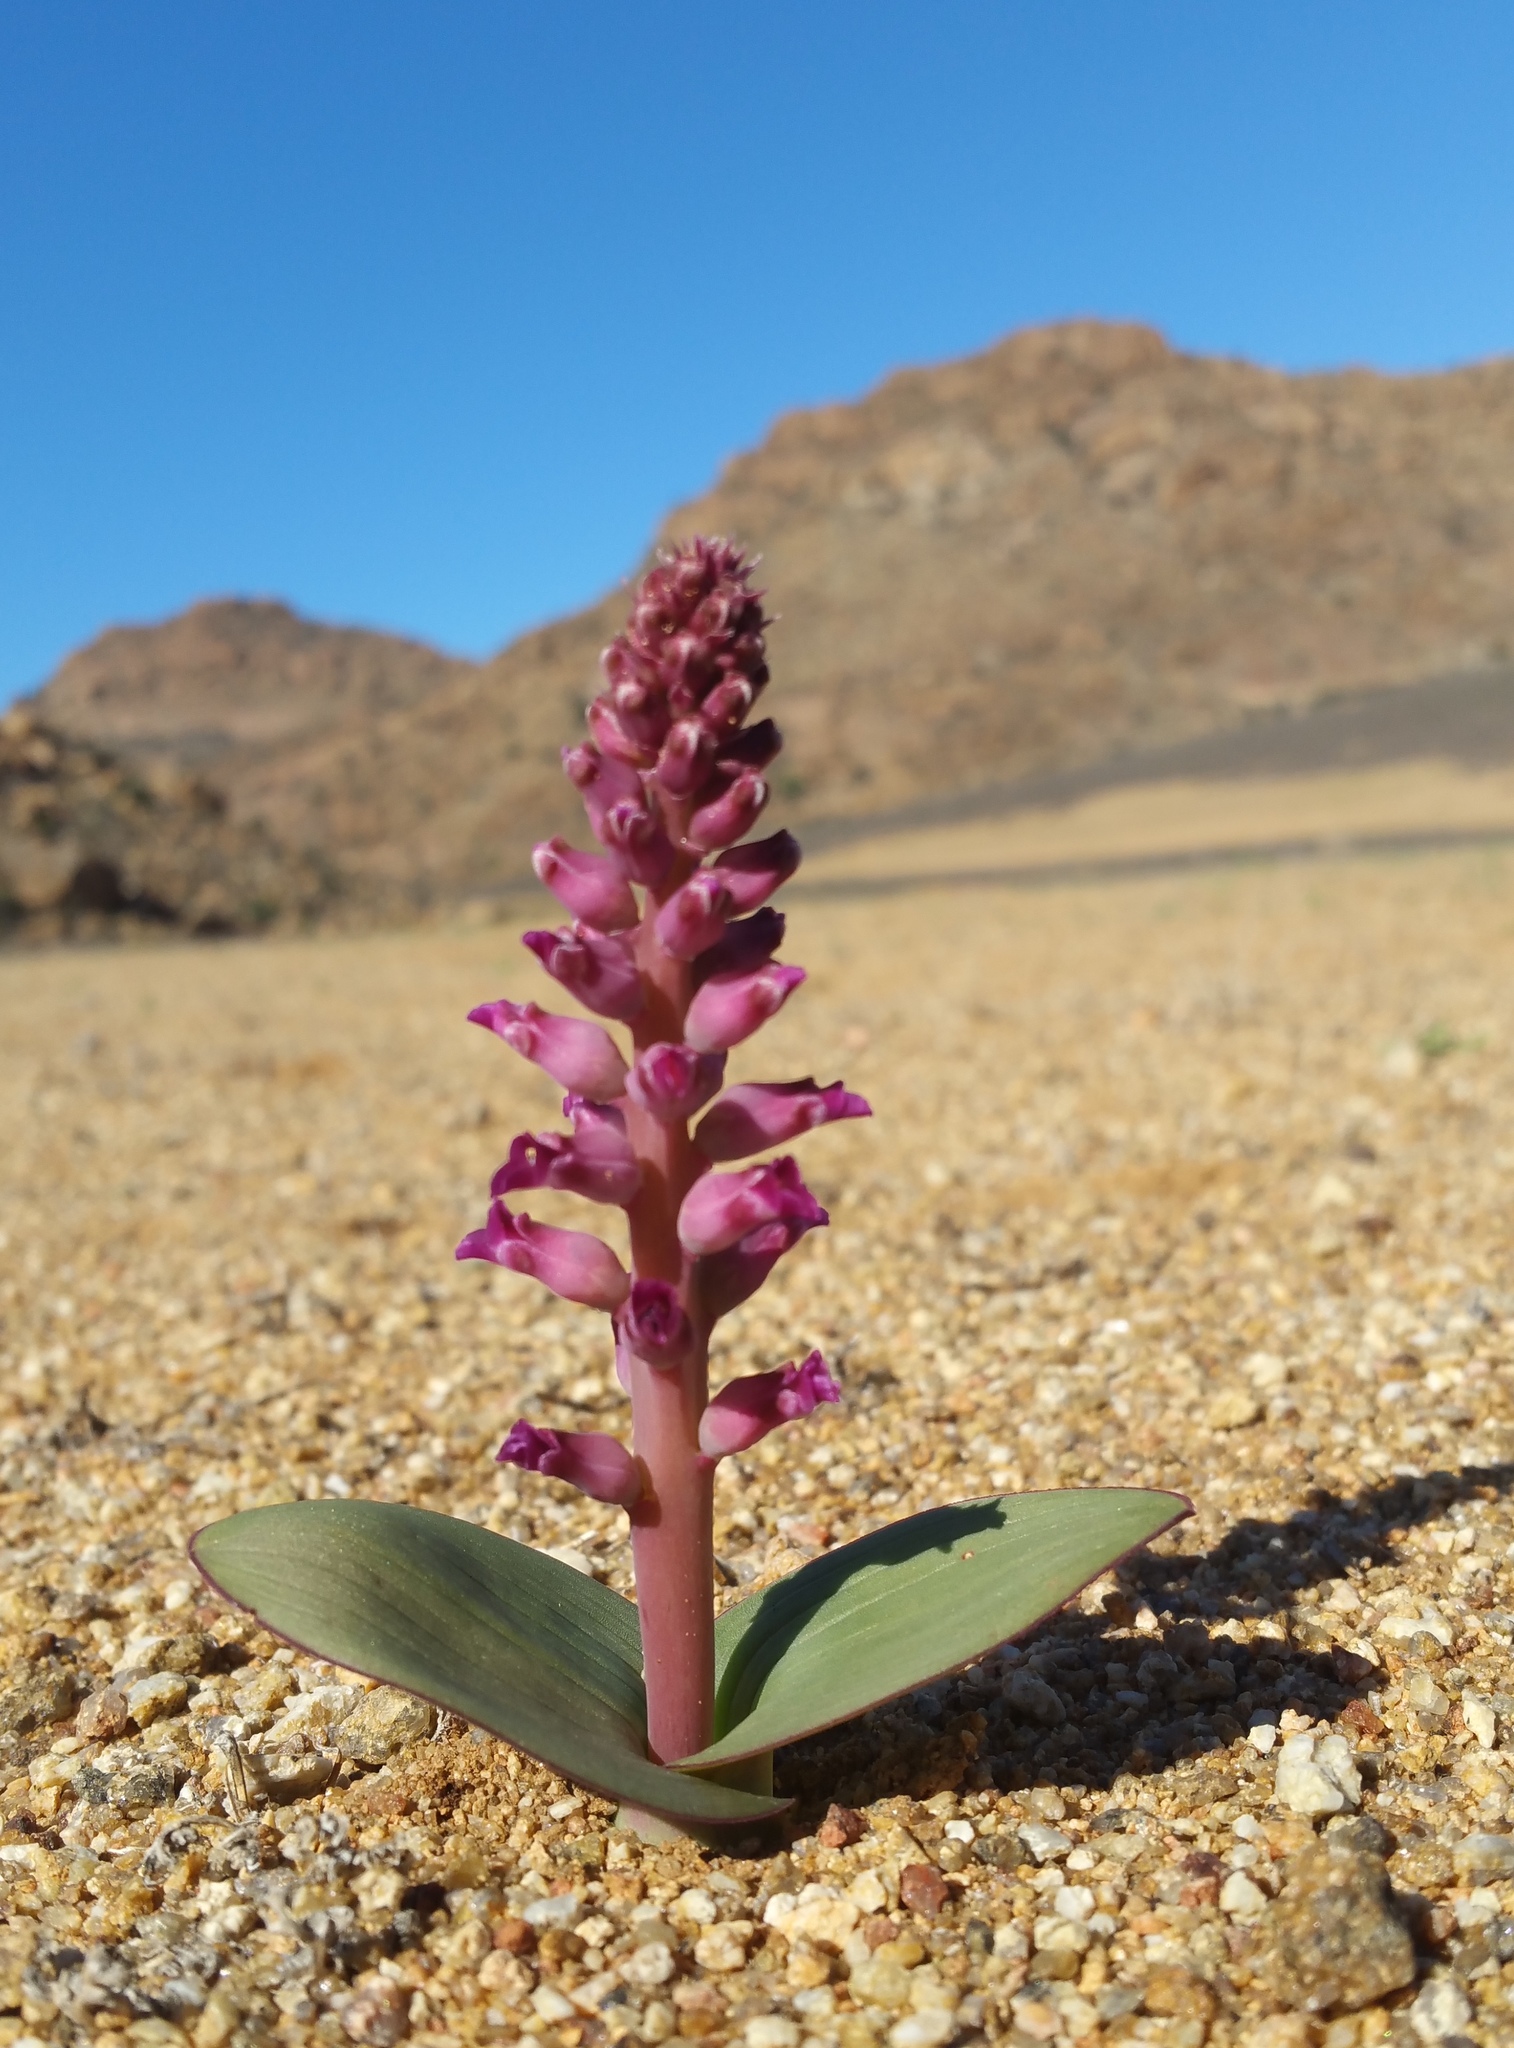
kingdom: Plantae
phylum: Tracheophyta
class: Liliopsida
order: Asparagales
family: Asparagaceae
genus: Lachenalia
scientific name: Lachenalia carnosa
